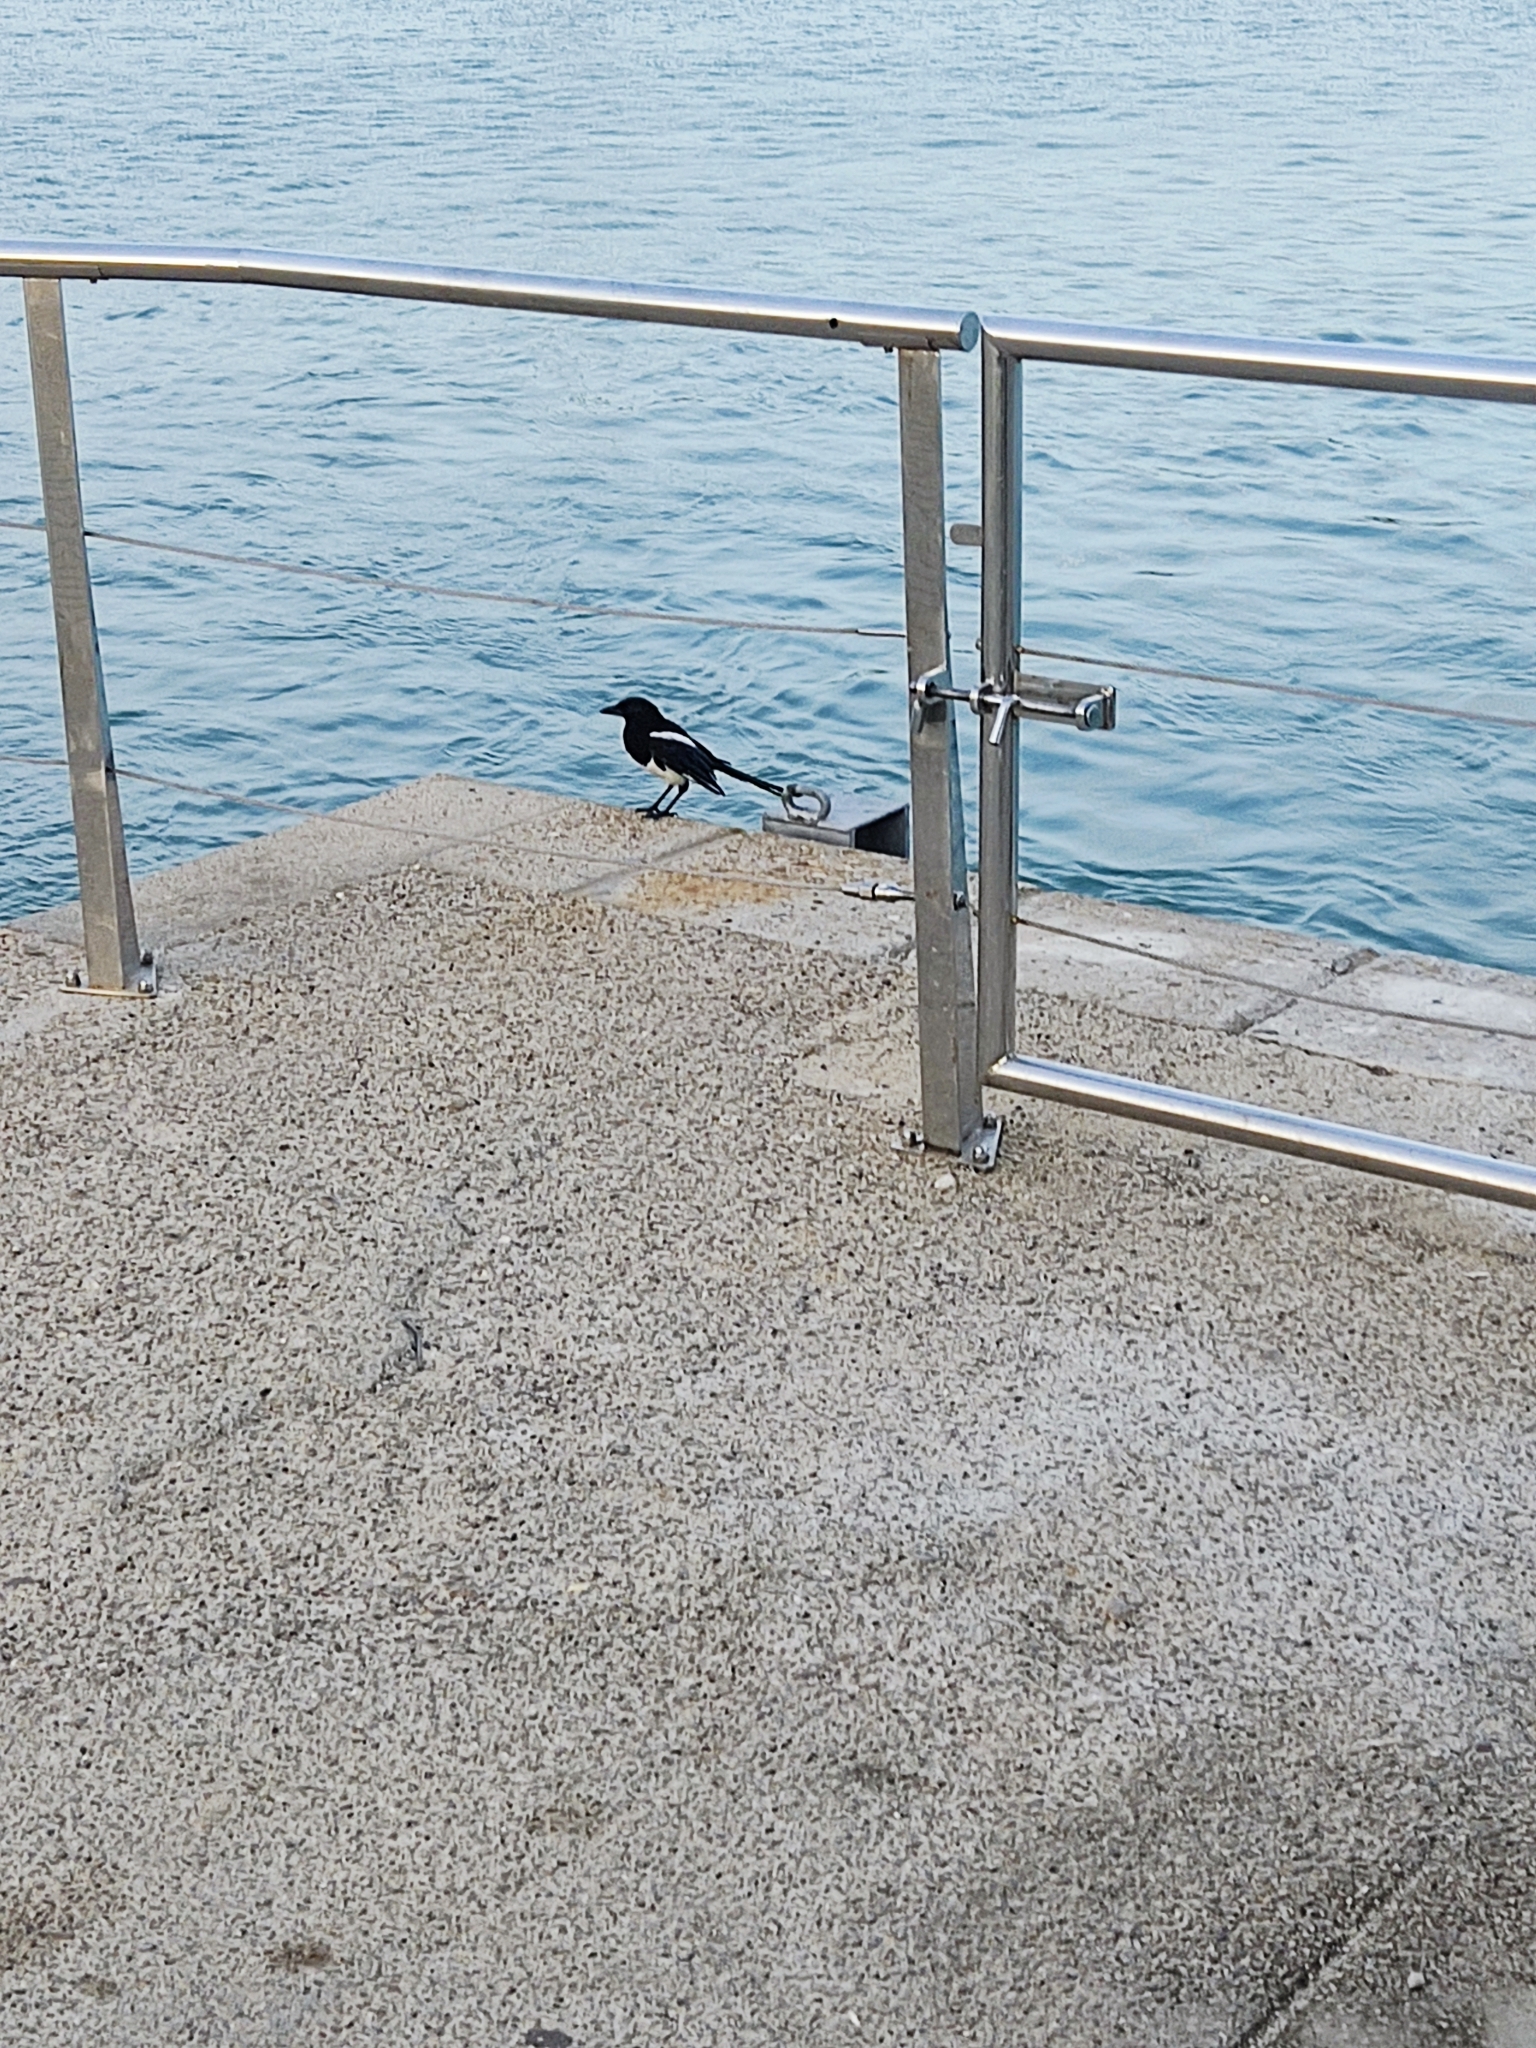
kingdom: Animalia
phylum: Chordata
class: Aves
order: Passeriformes
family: Corvidae
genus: Pica
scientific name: Pica pica
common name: Eurasian magpie
